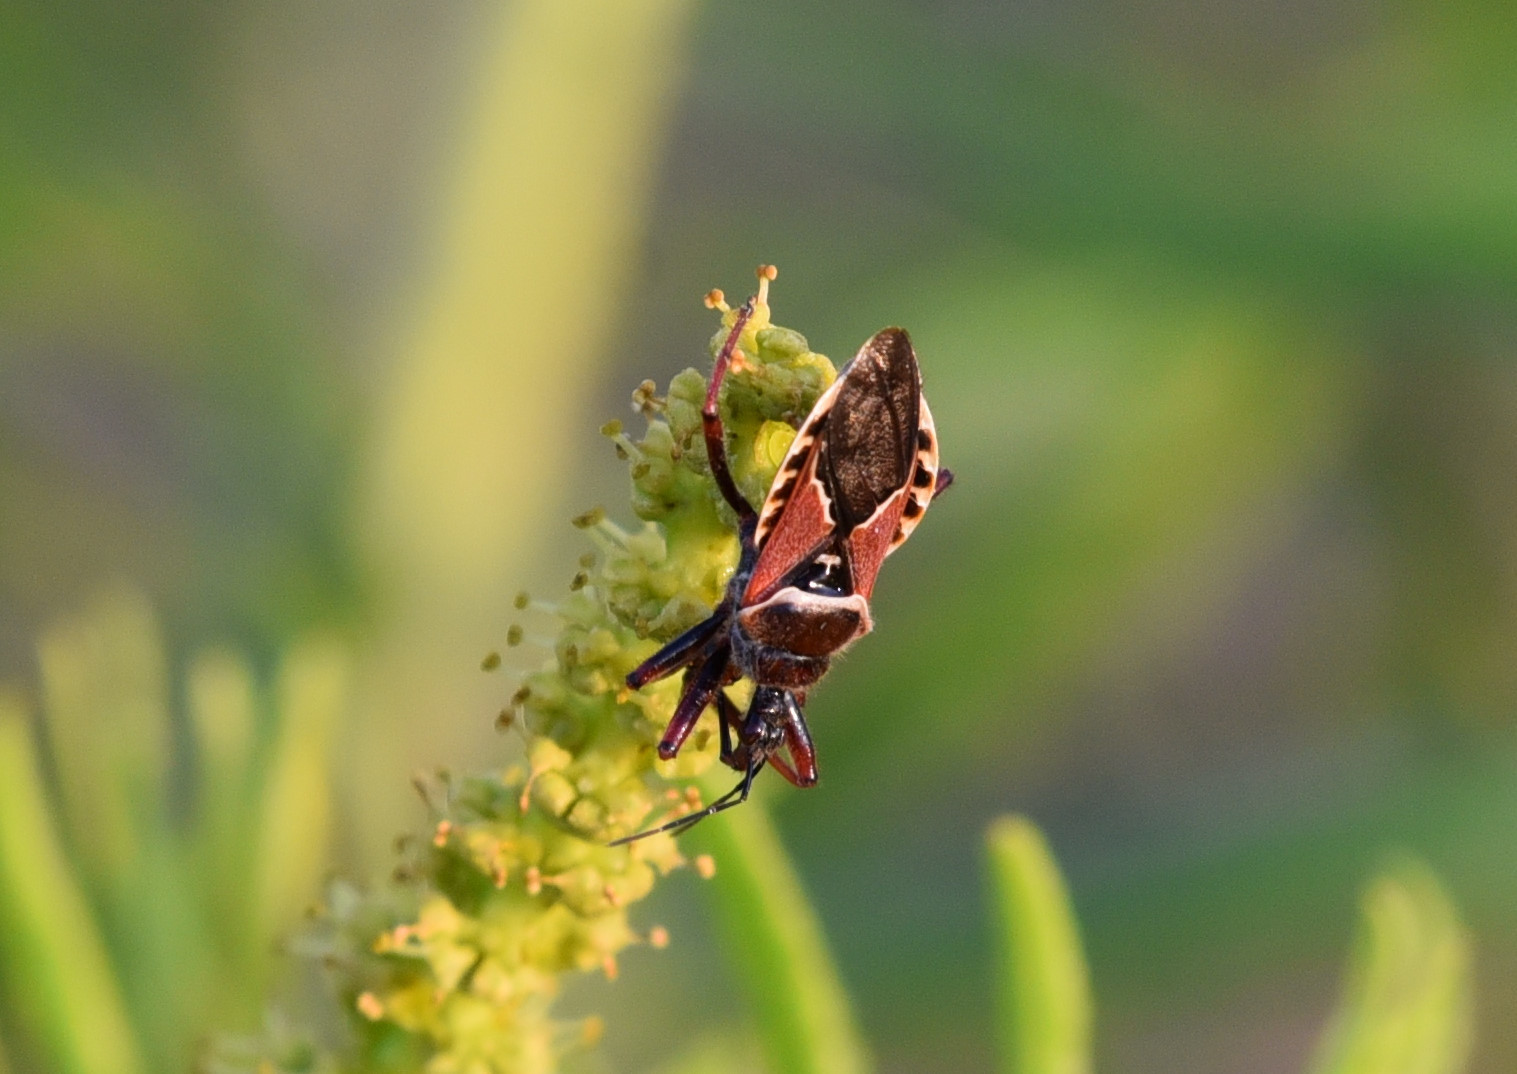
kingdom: Animalia
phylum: Arthropoda
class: Insecta
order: Hemiptera
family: Reduviidae
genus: Apiomerus
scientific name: Apiomerus spissipes
